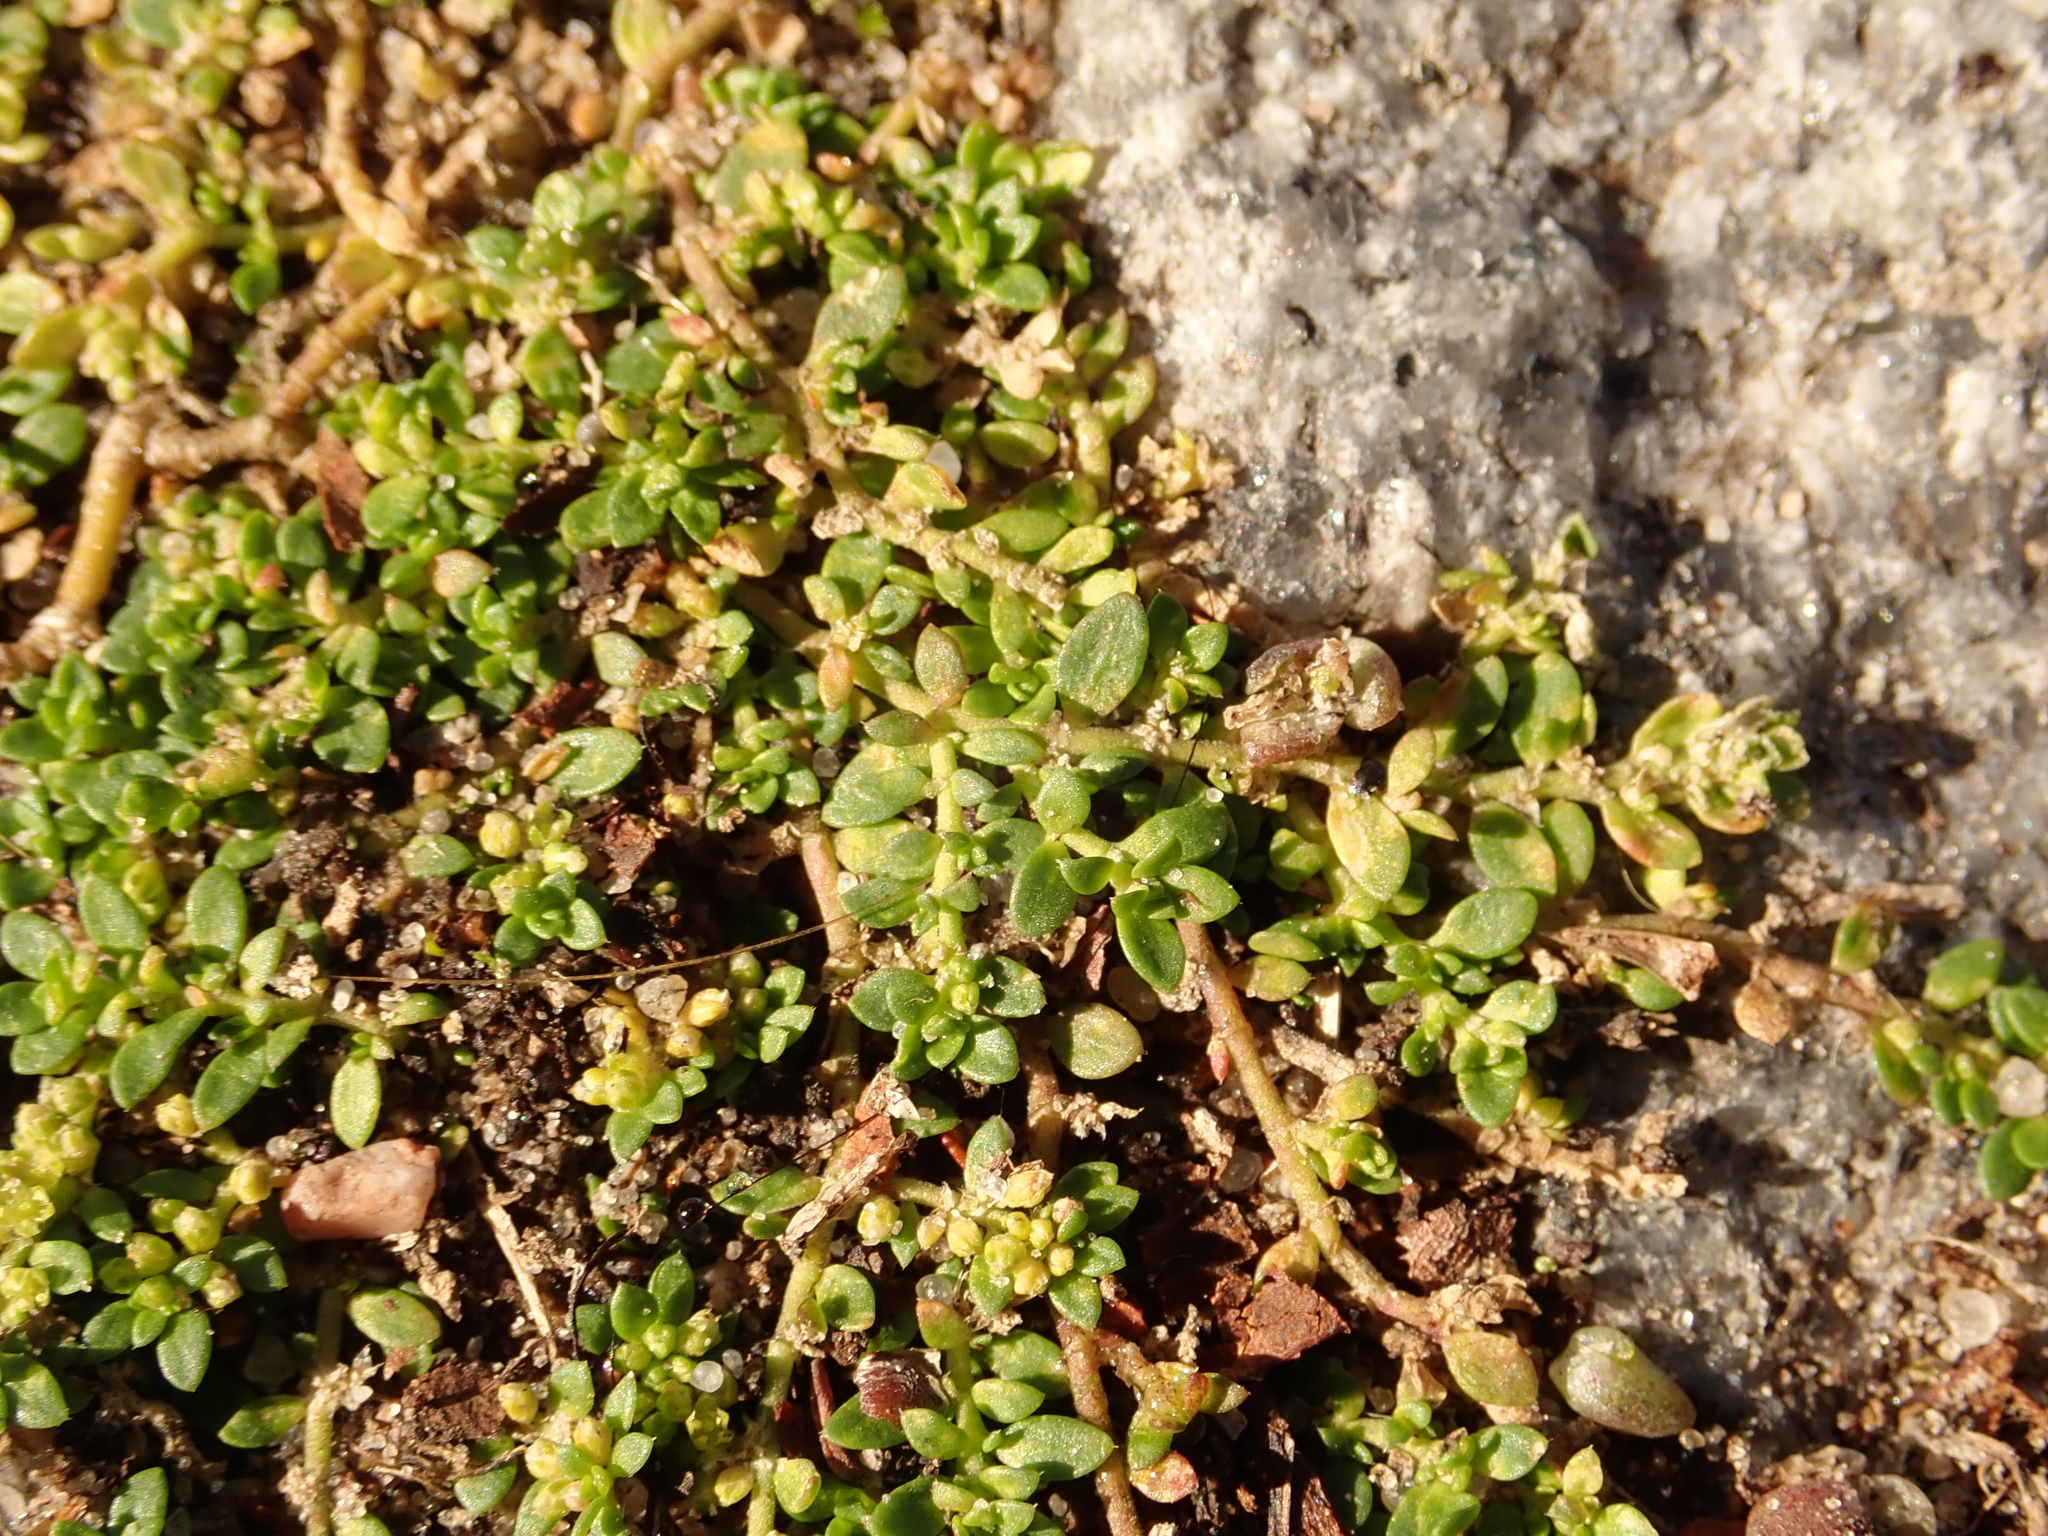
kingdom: Plantae
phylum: Tracheophyta
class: Magnoliopsida
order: Caryophyllales
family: Caryophyllaceae
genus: Herniaria
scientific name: Herniaria glabra
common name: Smooth rupturewort
